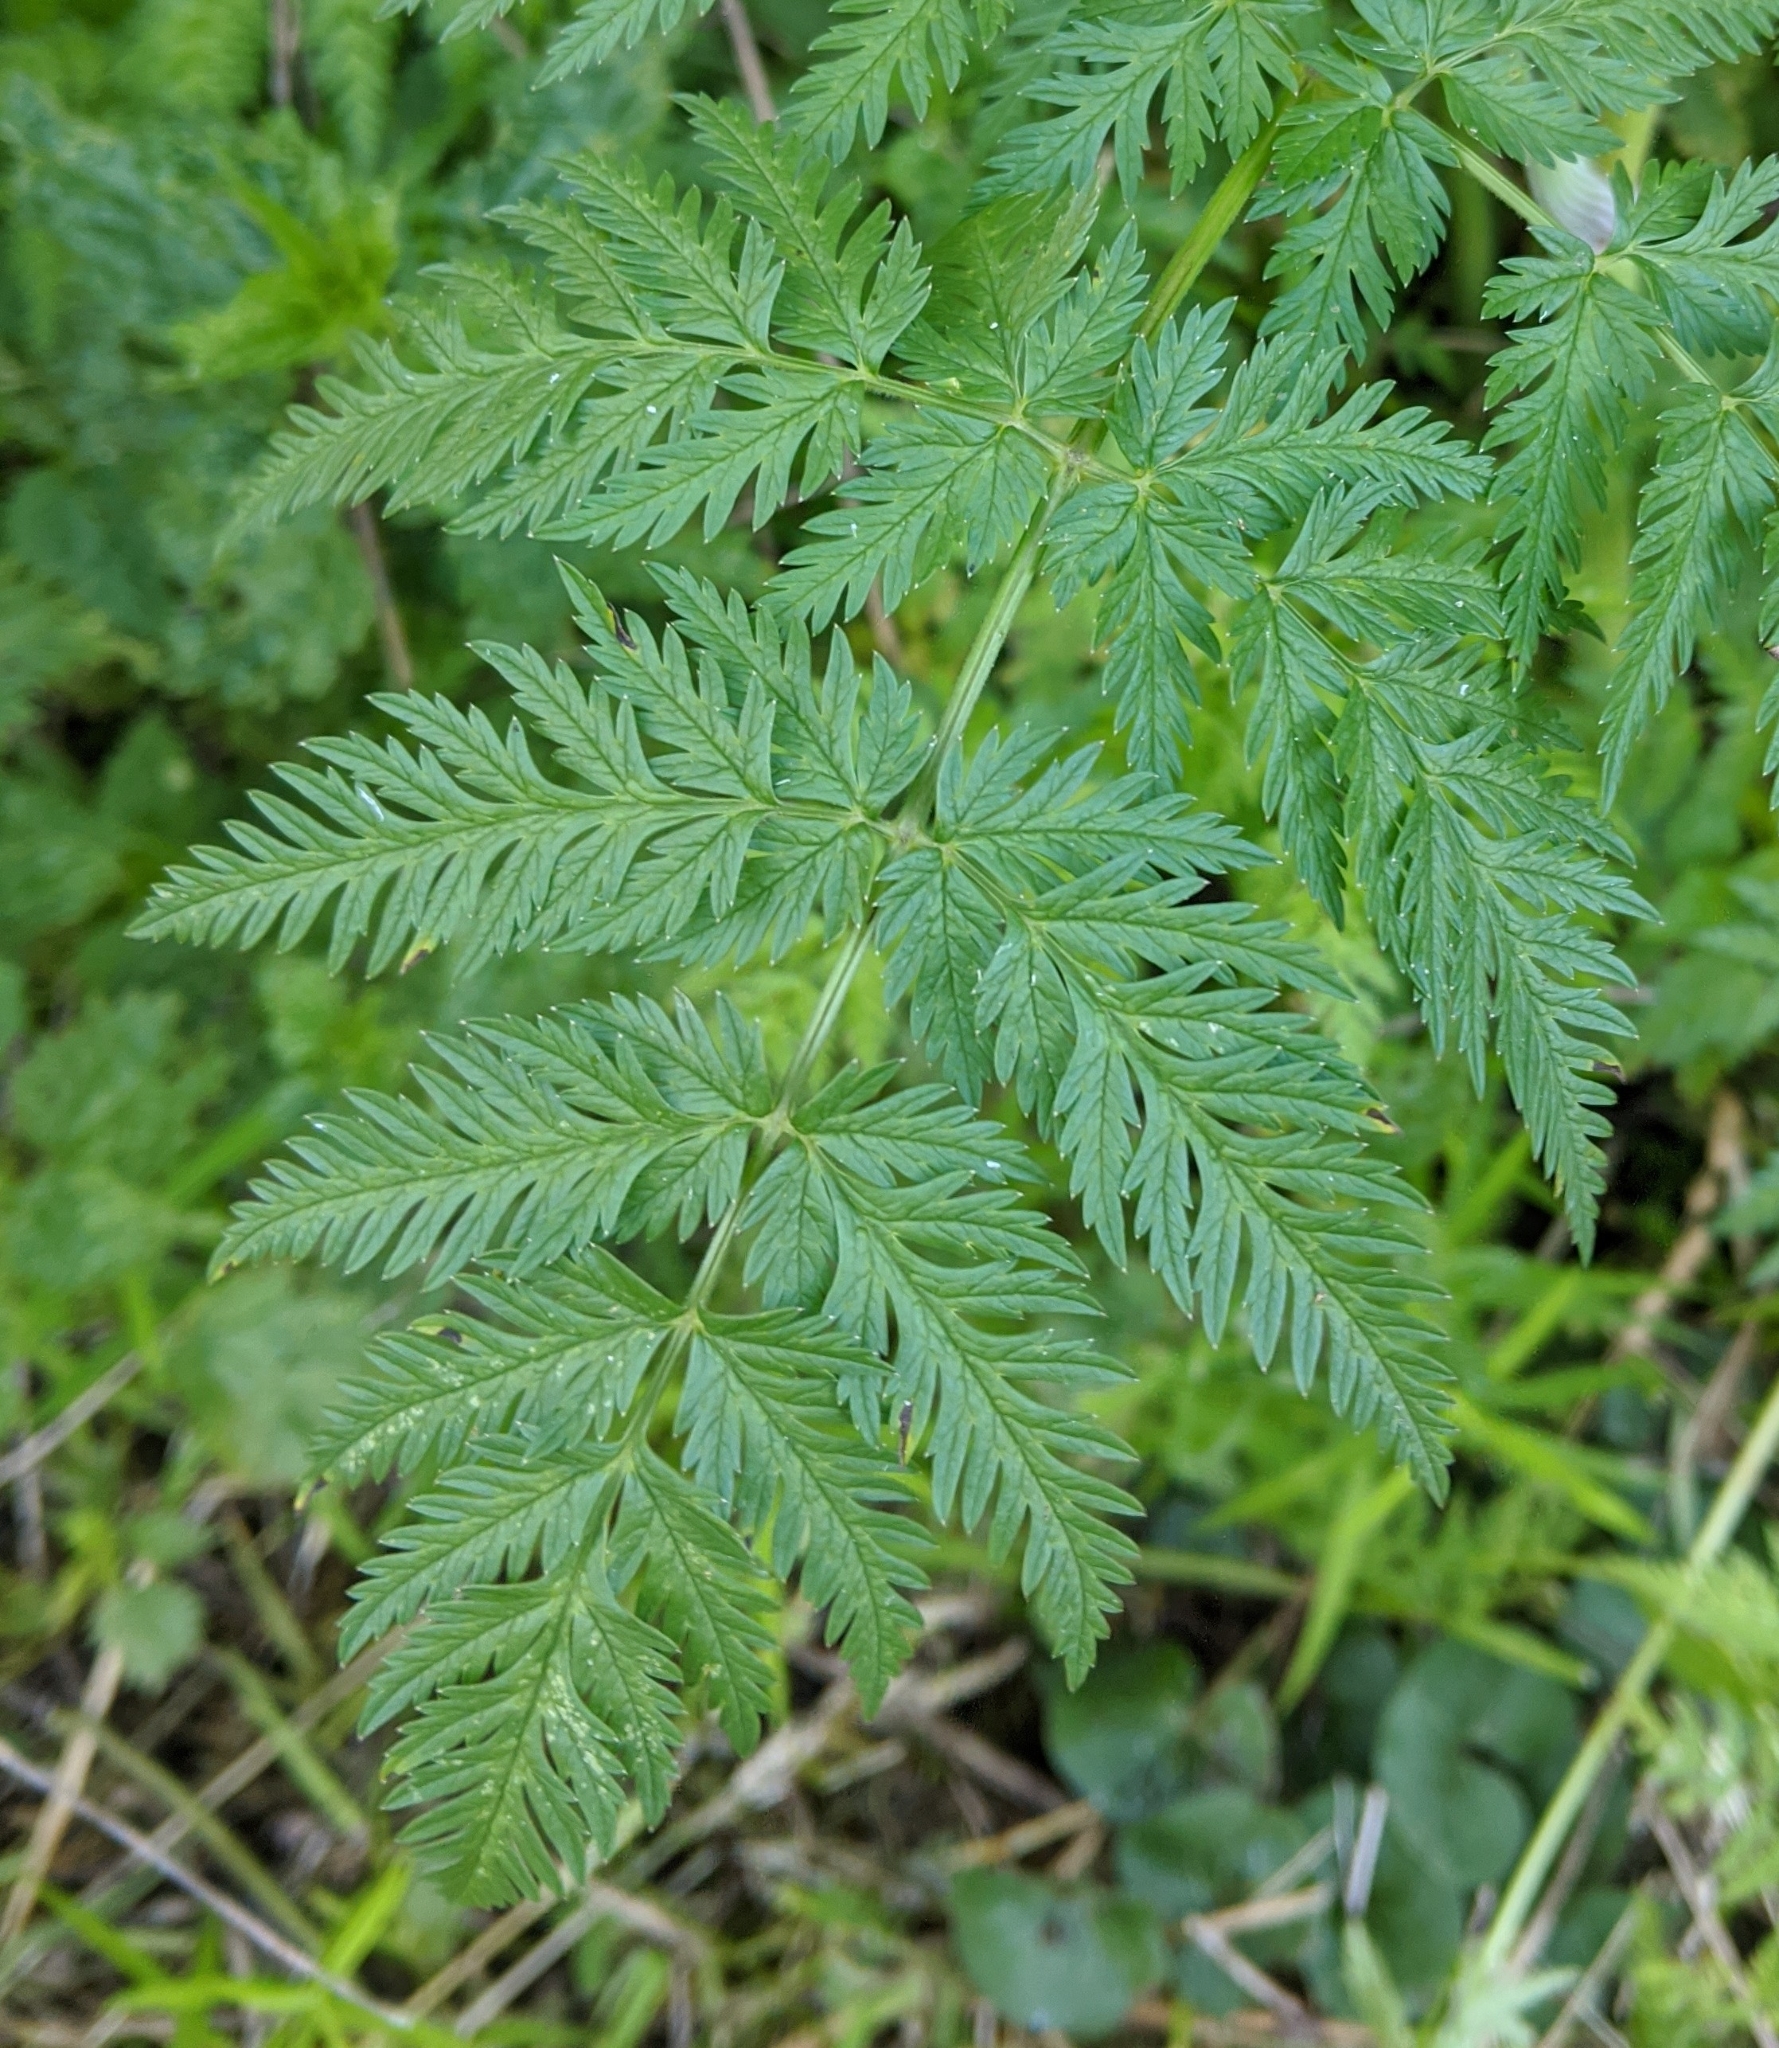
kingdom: Plantae
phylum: Tracheophyta
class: Magnoliopsida
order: Apiales
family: Apiaceae
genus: Anthriscus
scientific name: Anthriscus sylvestris
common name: Cow parsley
